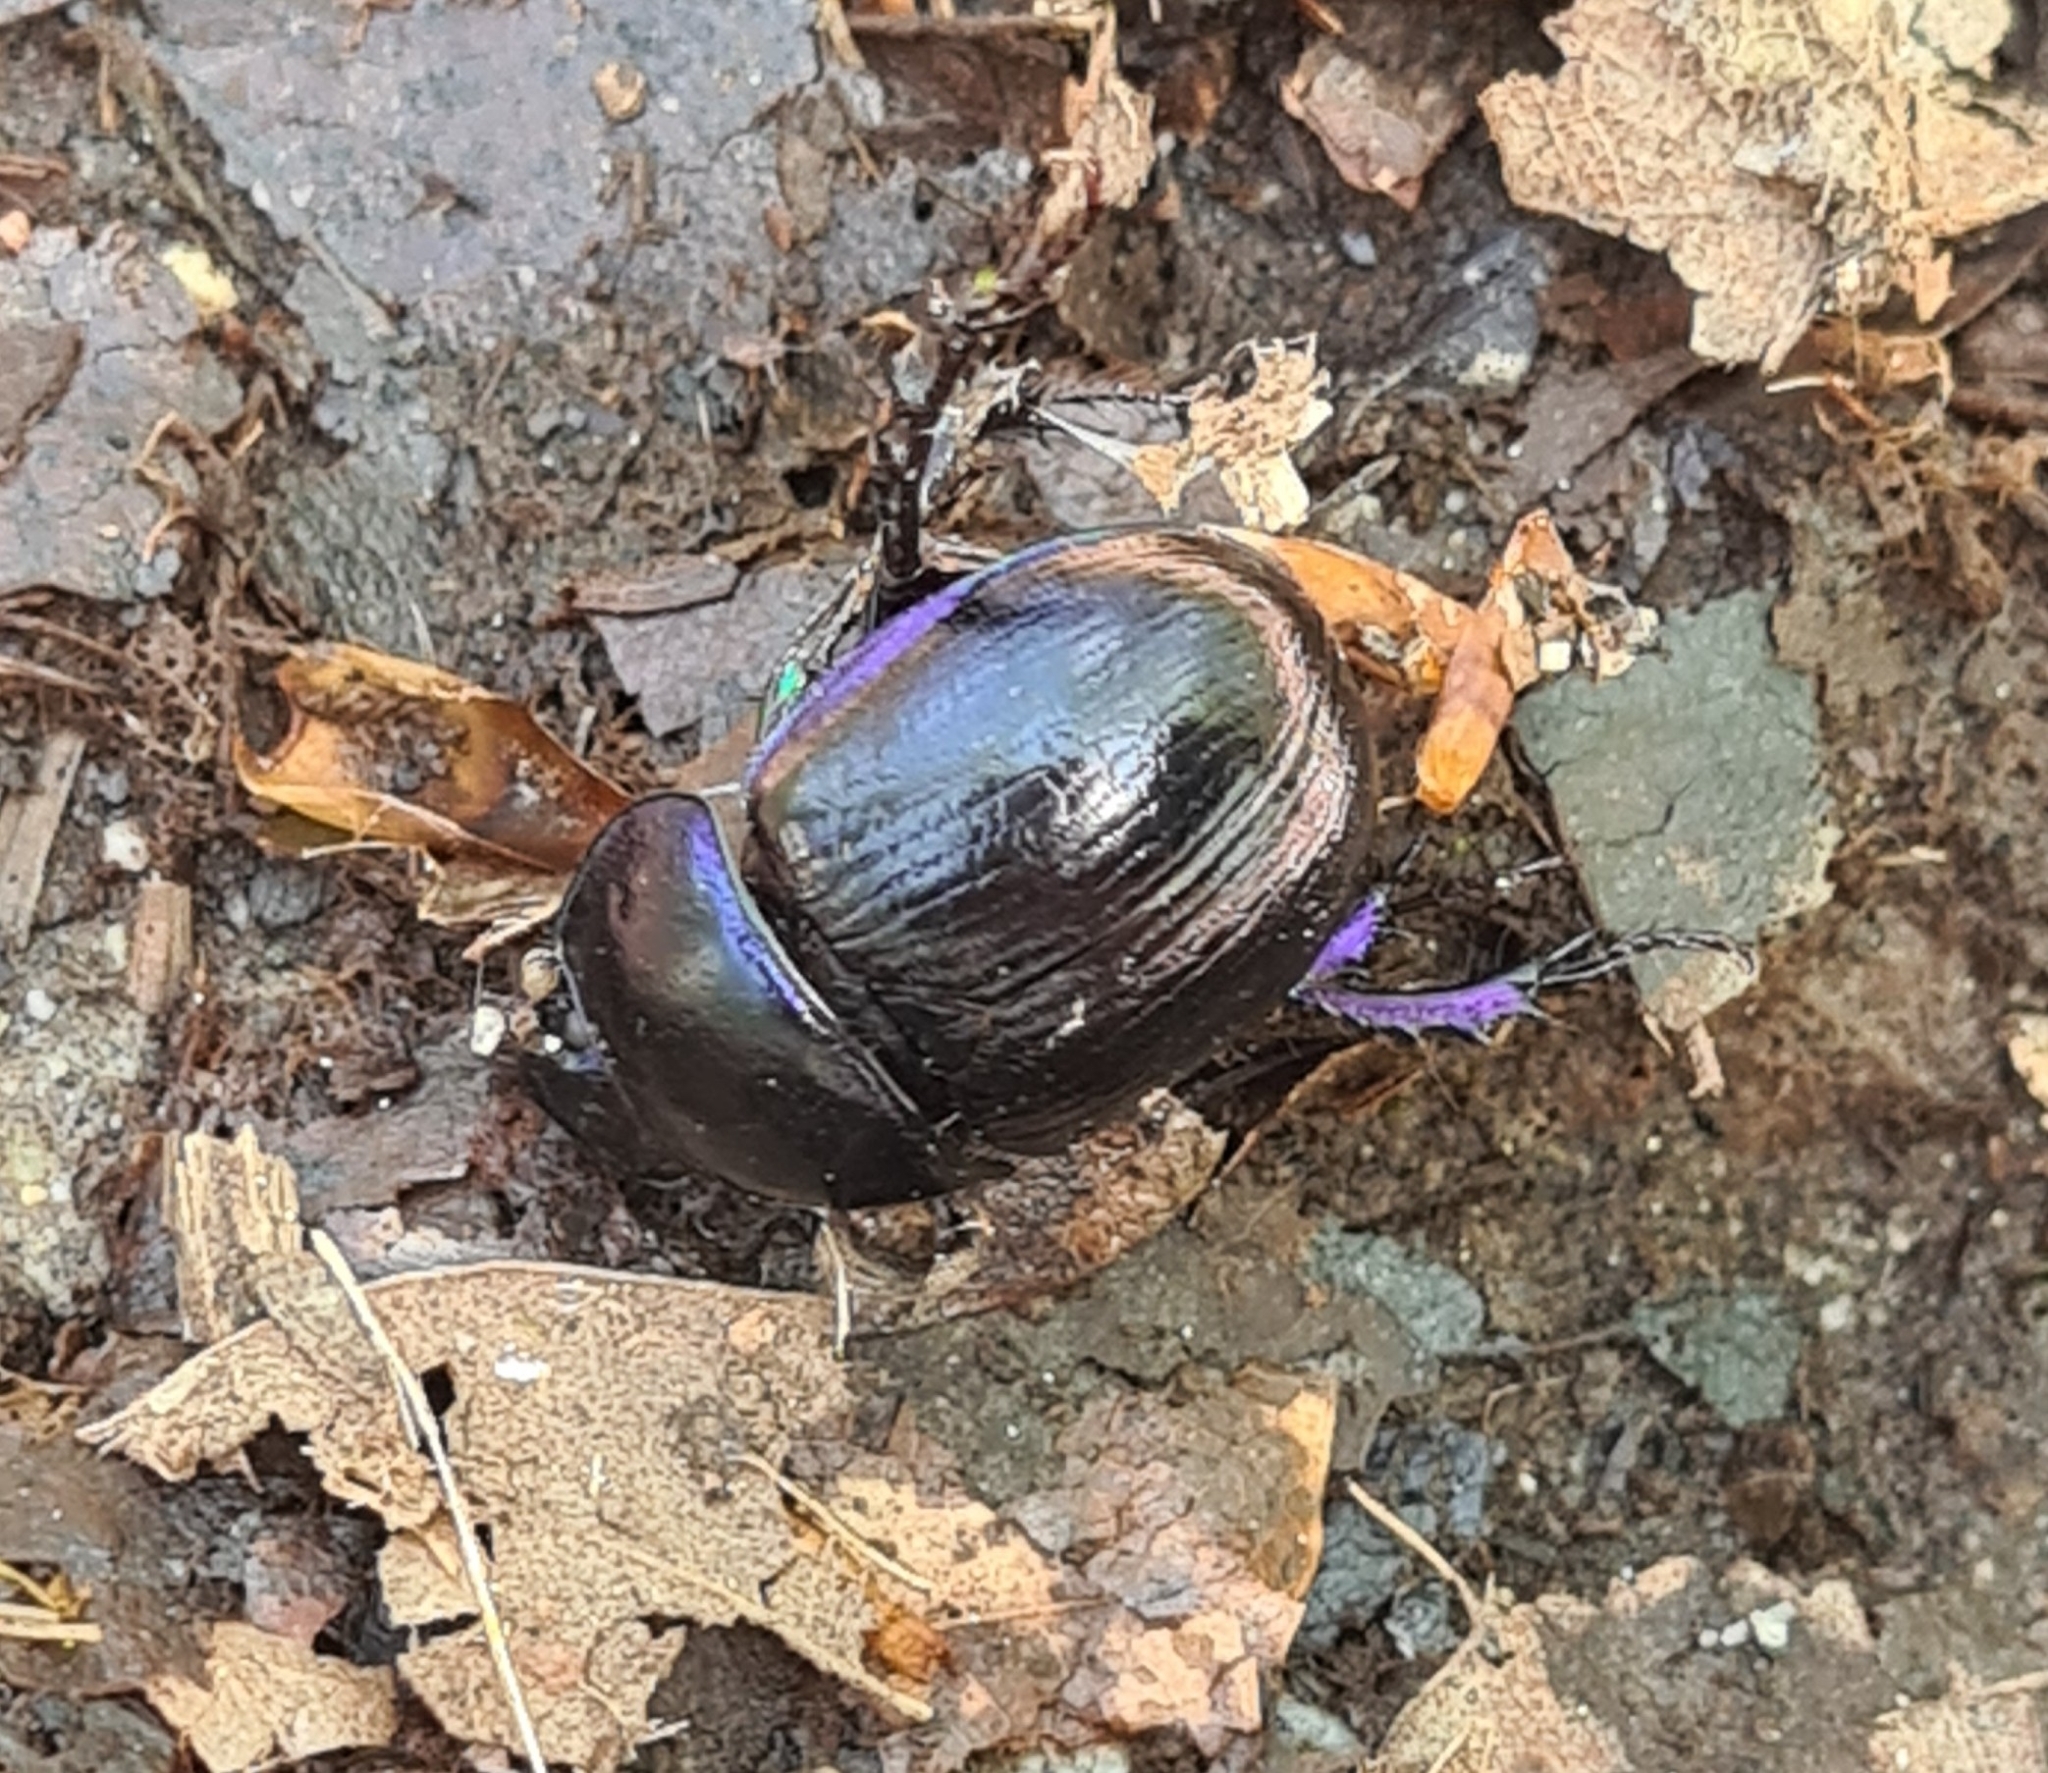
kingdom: Animalia
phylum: Arthropoda
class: Insecta
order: Coleoptera
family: Geotrupidae
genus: Anoplotrupes
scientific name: Anoplotrupes stercorosus
